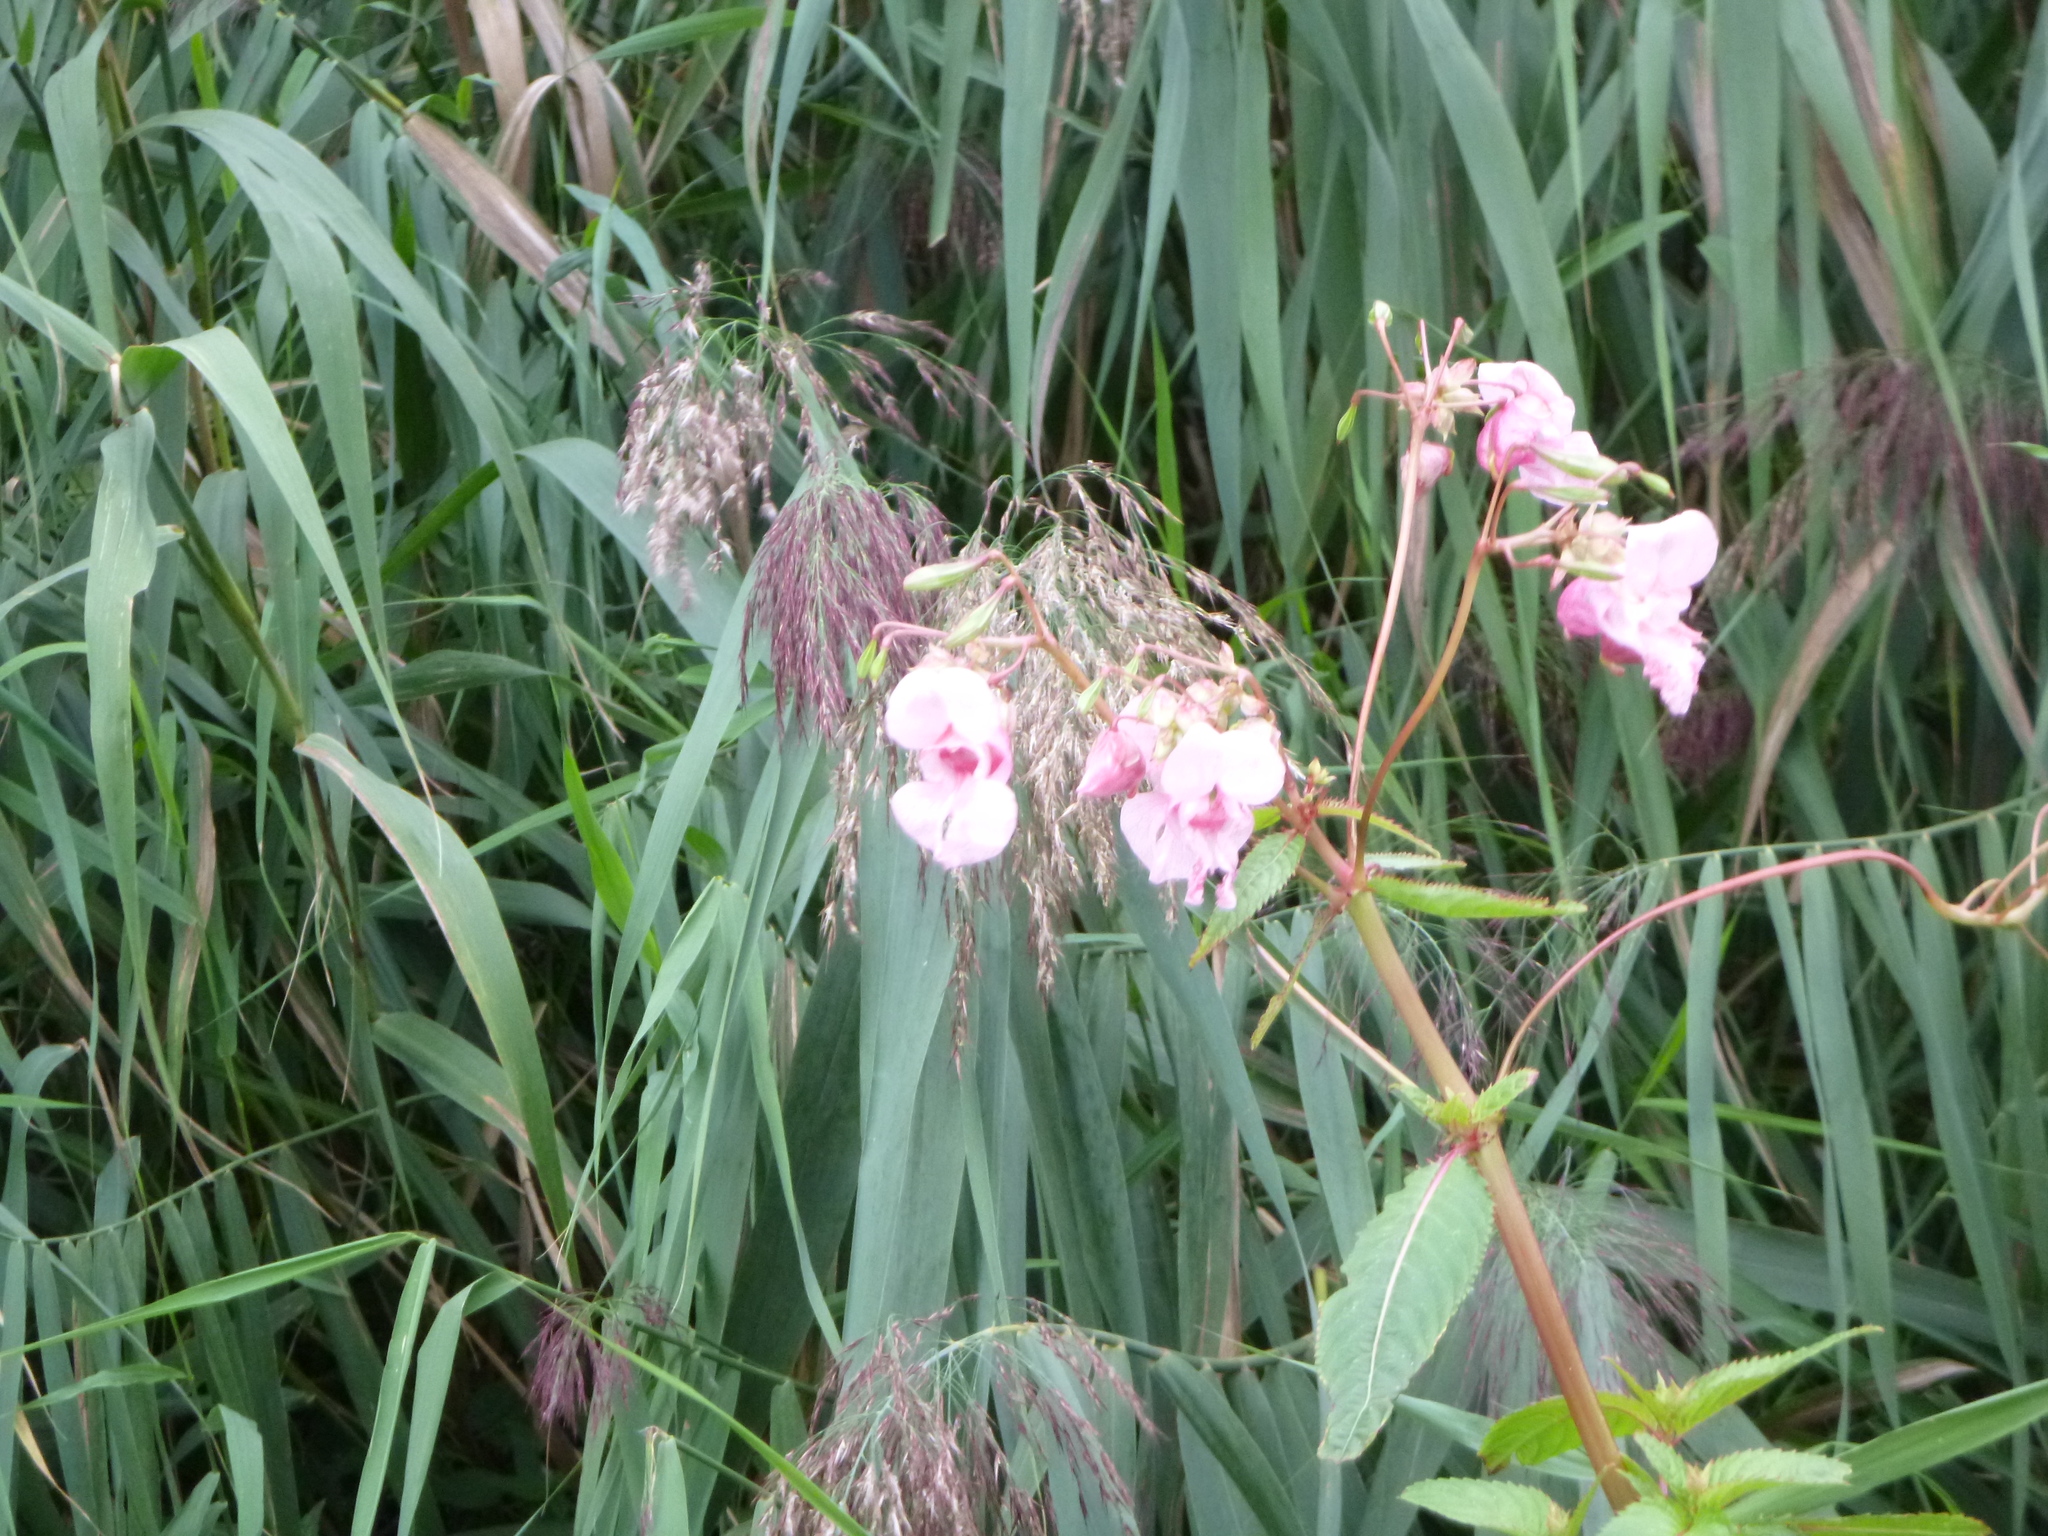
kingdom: Plantae
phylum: Tracheophyta
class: Magnoliopsida
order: Ericales
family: Balsaminaceae
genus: Impatiens
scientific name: Impatiens glandulifera
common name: Himalayan balsam
